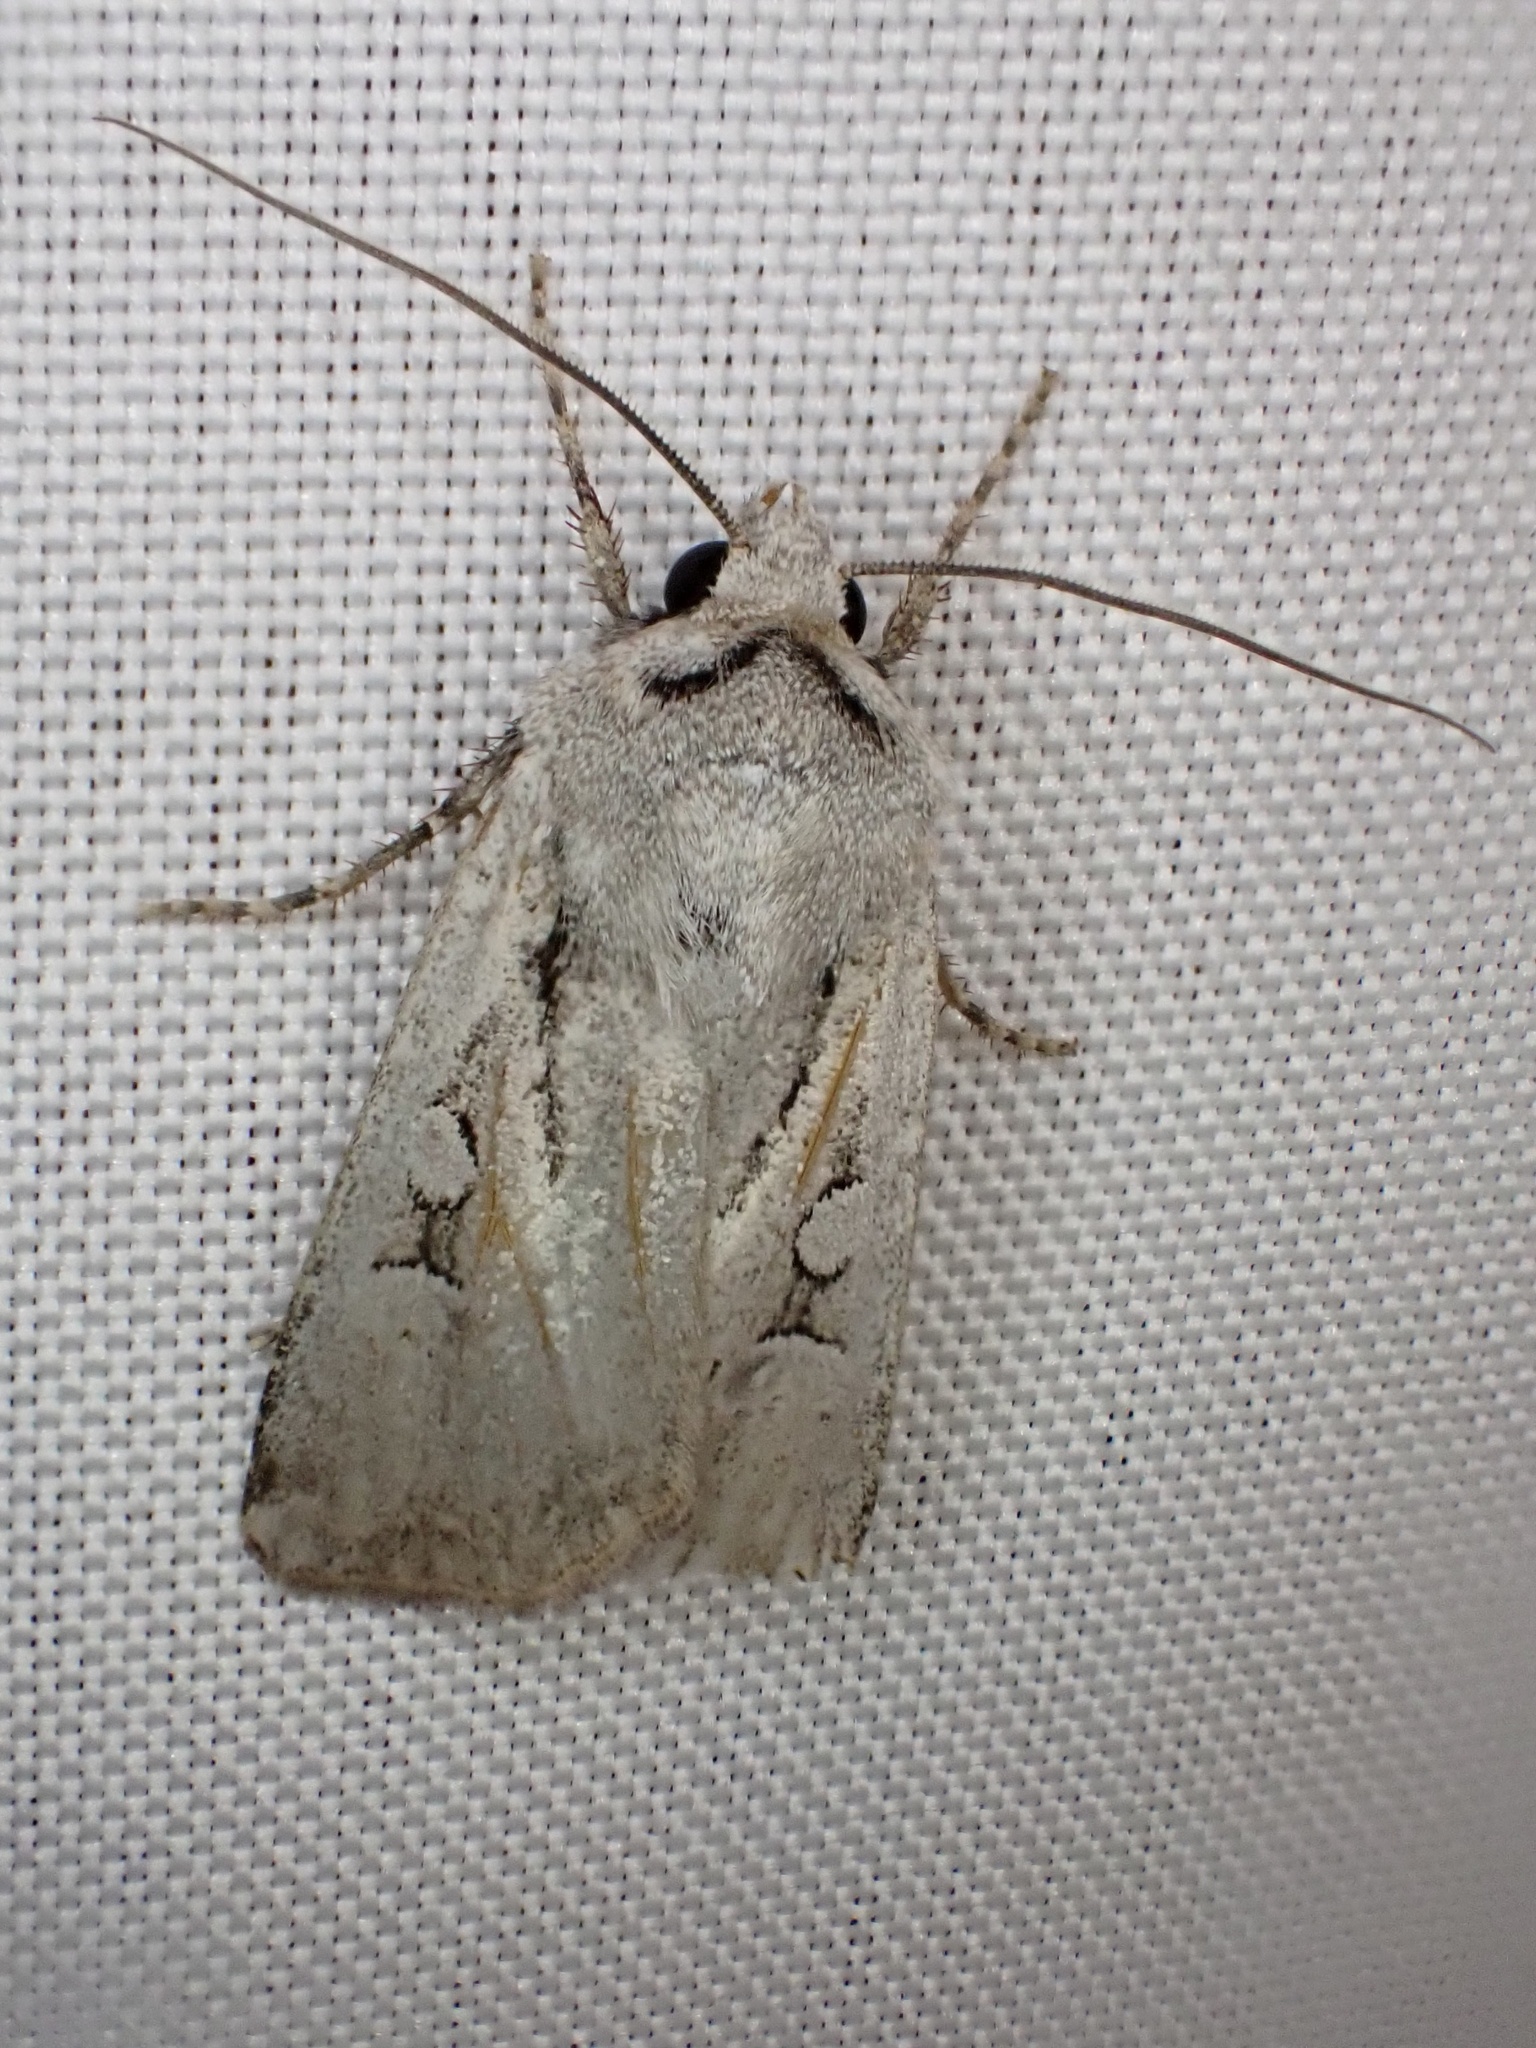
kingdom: Animalia
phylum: Arthropoda
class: Insecta
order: Lepidoptera
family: Noctuidae
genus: Hemieuxoa
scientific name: Hemieuxoa rudens
